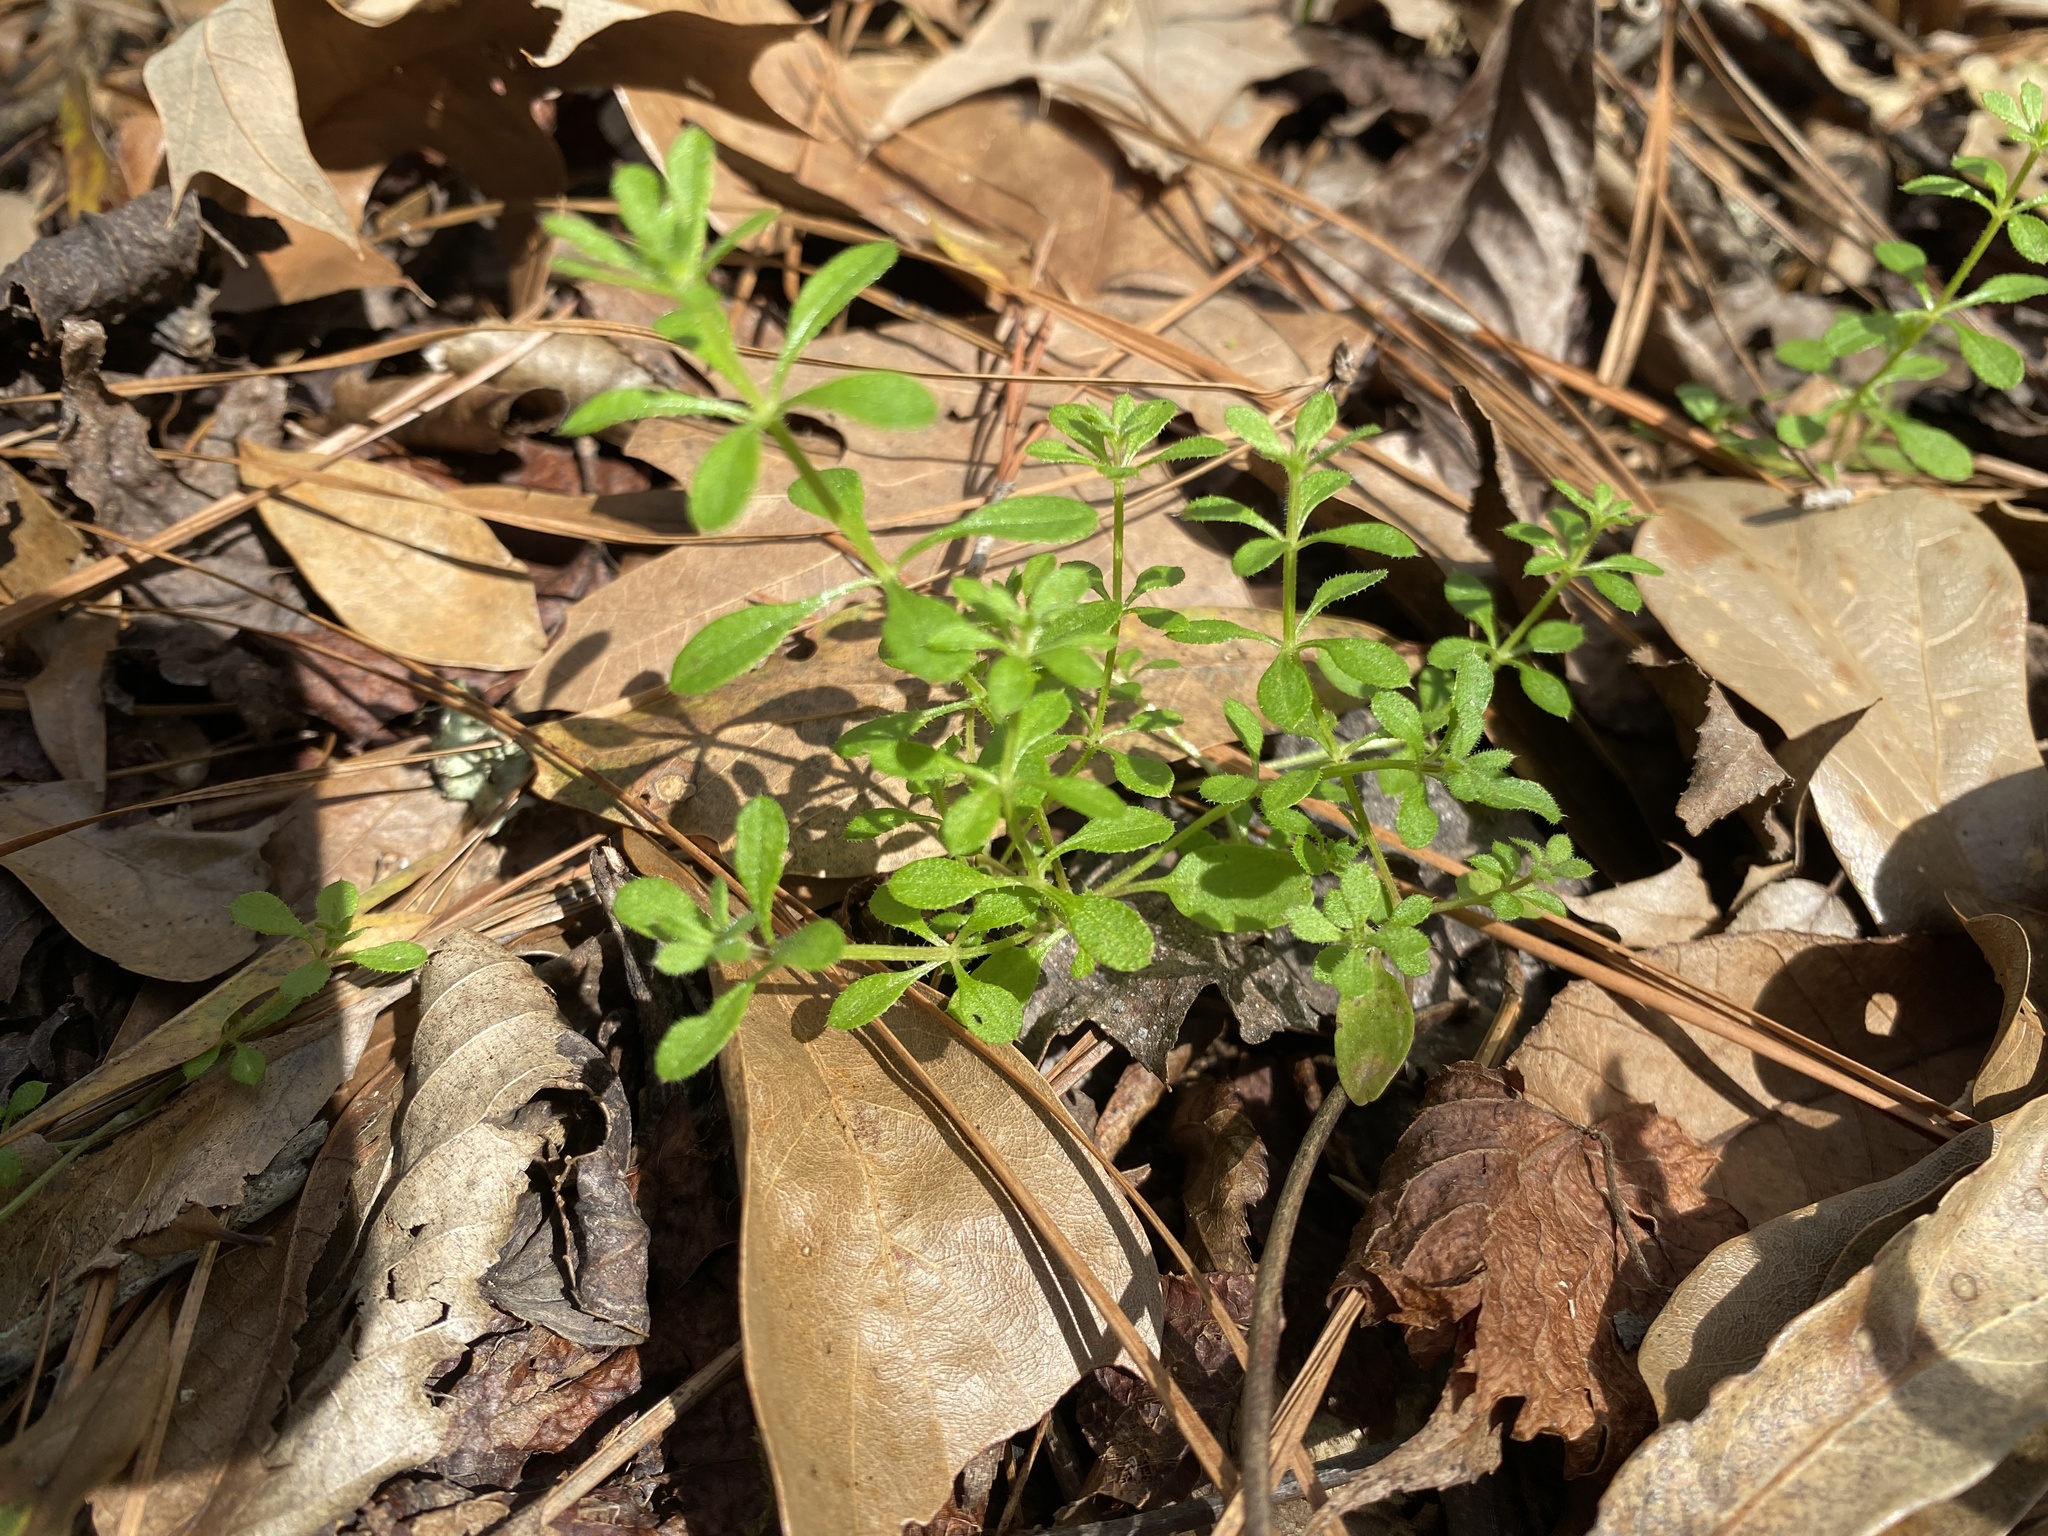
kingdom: Plantae
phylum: Tracheophyta
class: Magnoliopsida
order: Gentianales
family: Rubiaceae
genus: Galium
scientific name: Galium aparine
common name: Cleavers
